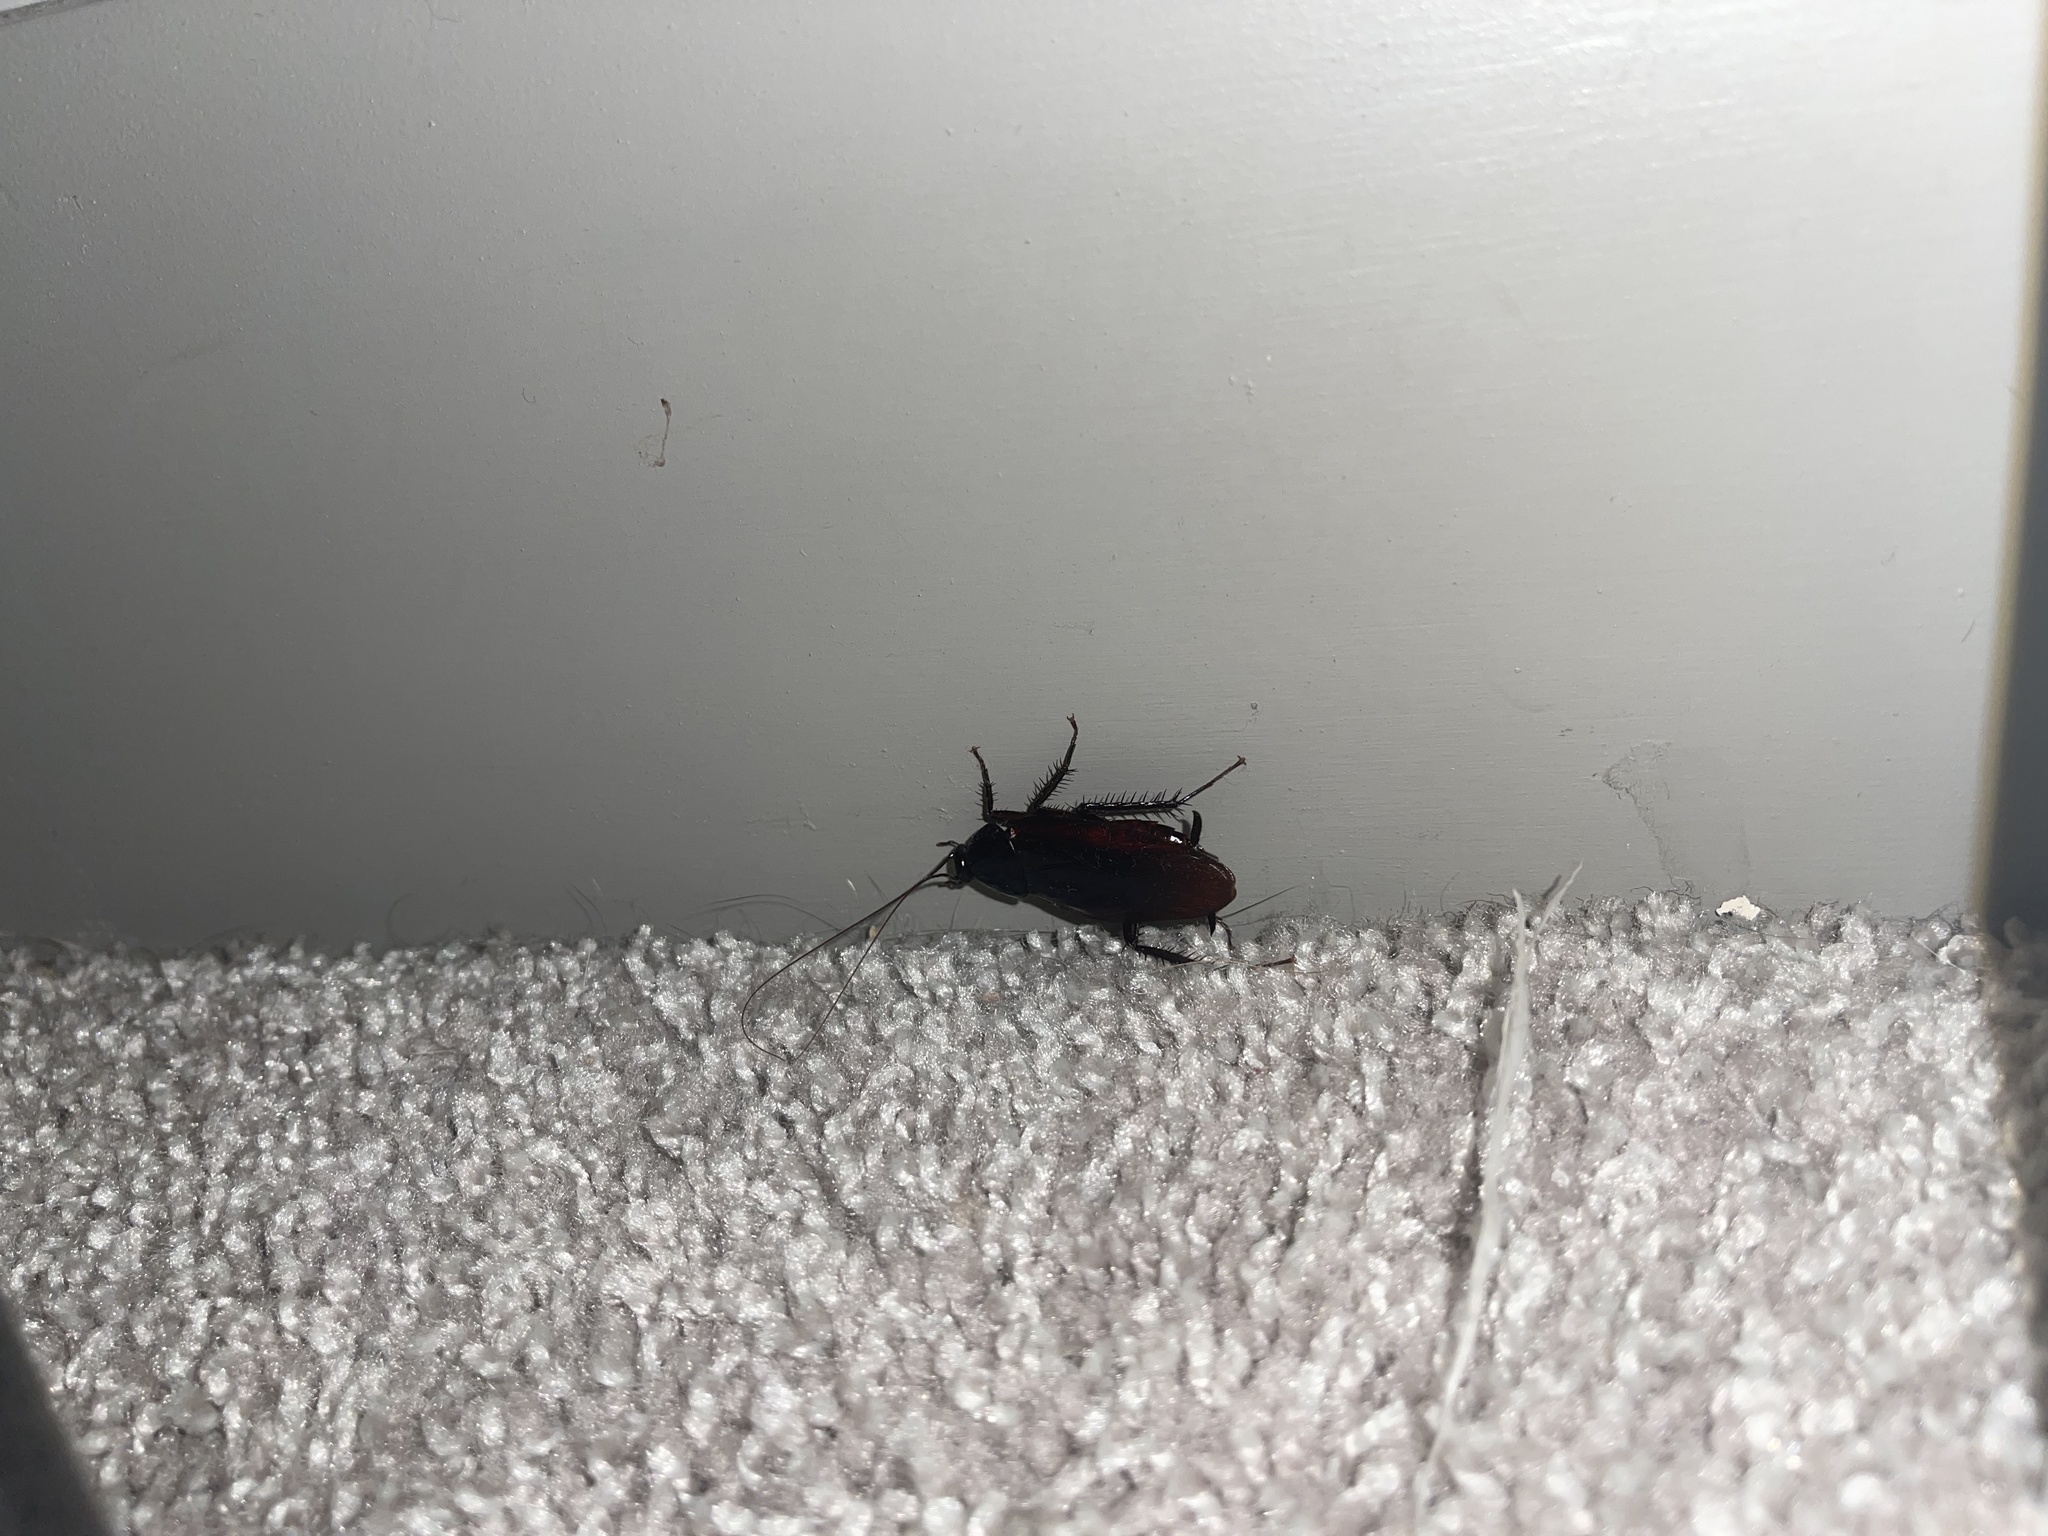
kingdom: Animalia
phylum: Arthropoda
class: Insecta
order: Blattodea
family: Blattidae
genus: Periplaneta
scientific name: Periplaneta fuliginosa
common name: Smokeybrown cockroad
